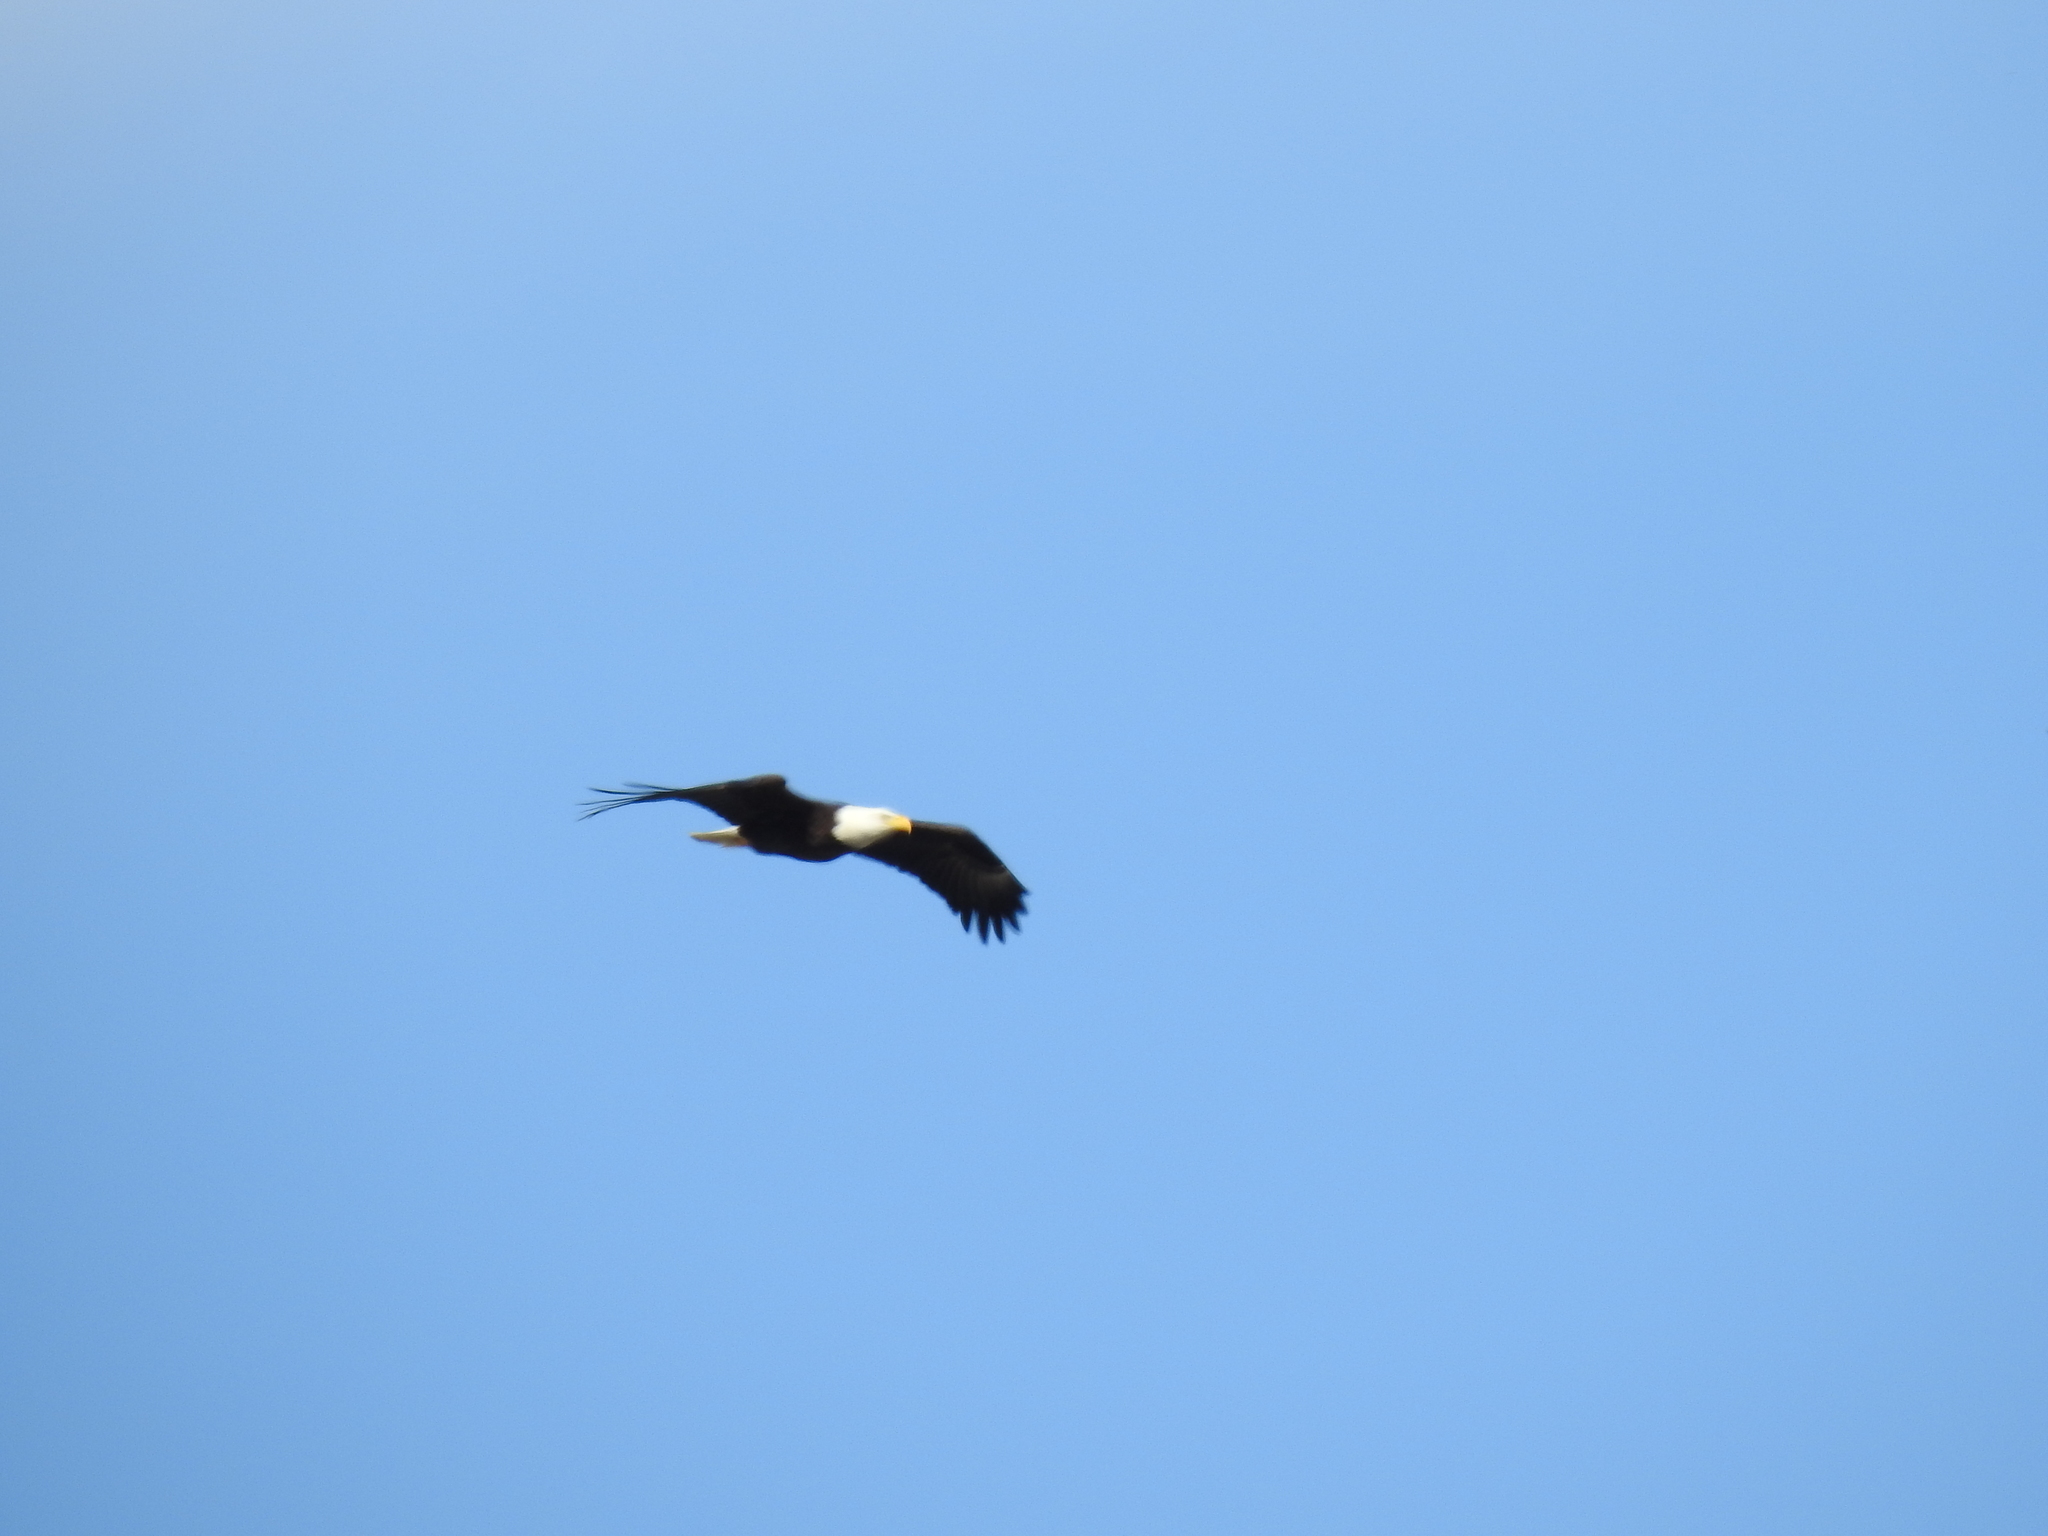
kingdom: Animalia
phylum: Chordata
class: Aves
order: Accipitriformes
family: Accipitridae
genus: Haliaeetus
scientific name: Haliaeetus leucocephalus
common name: Bald eagle
